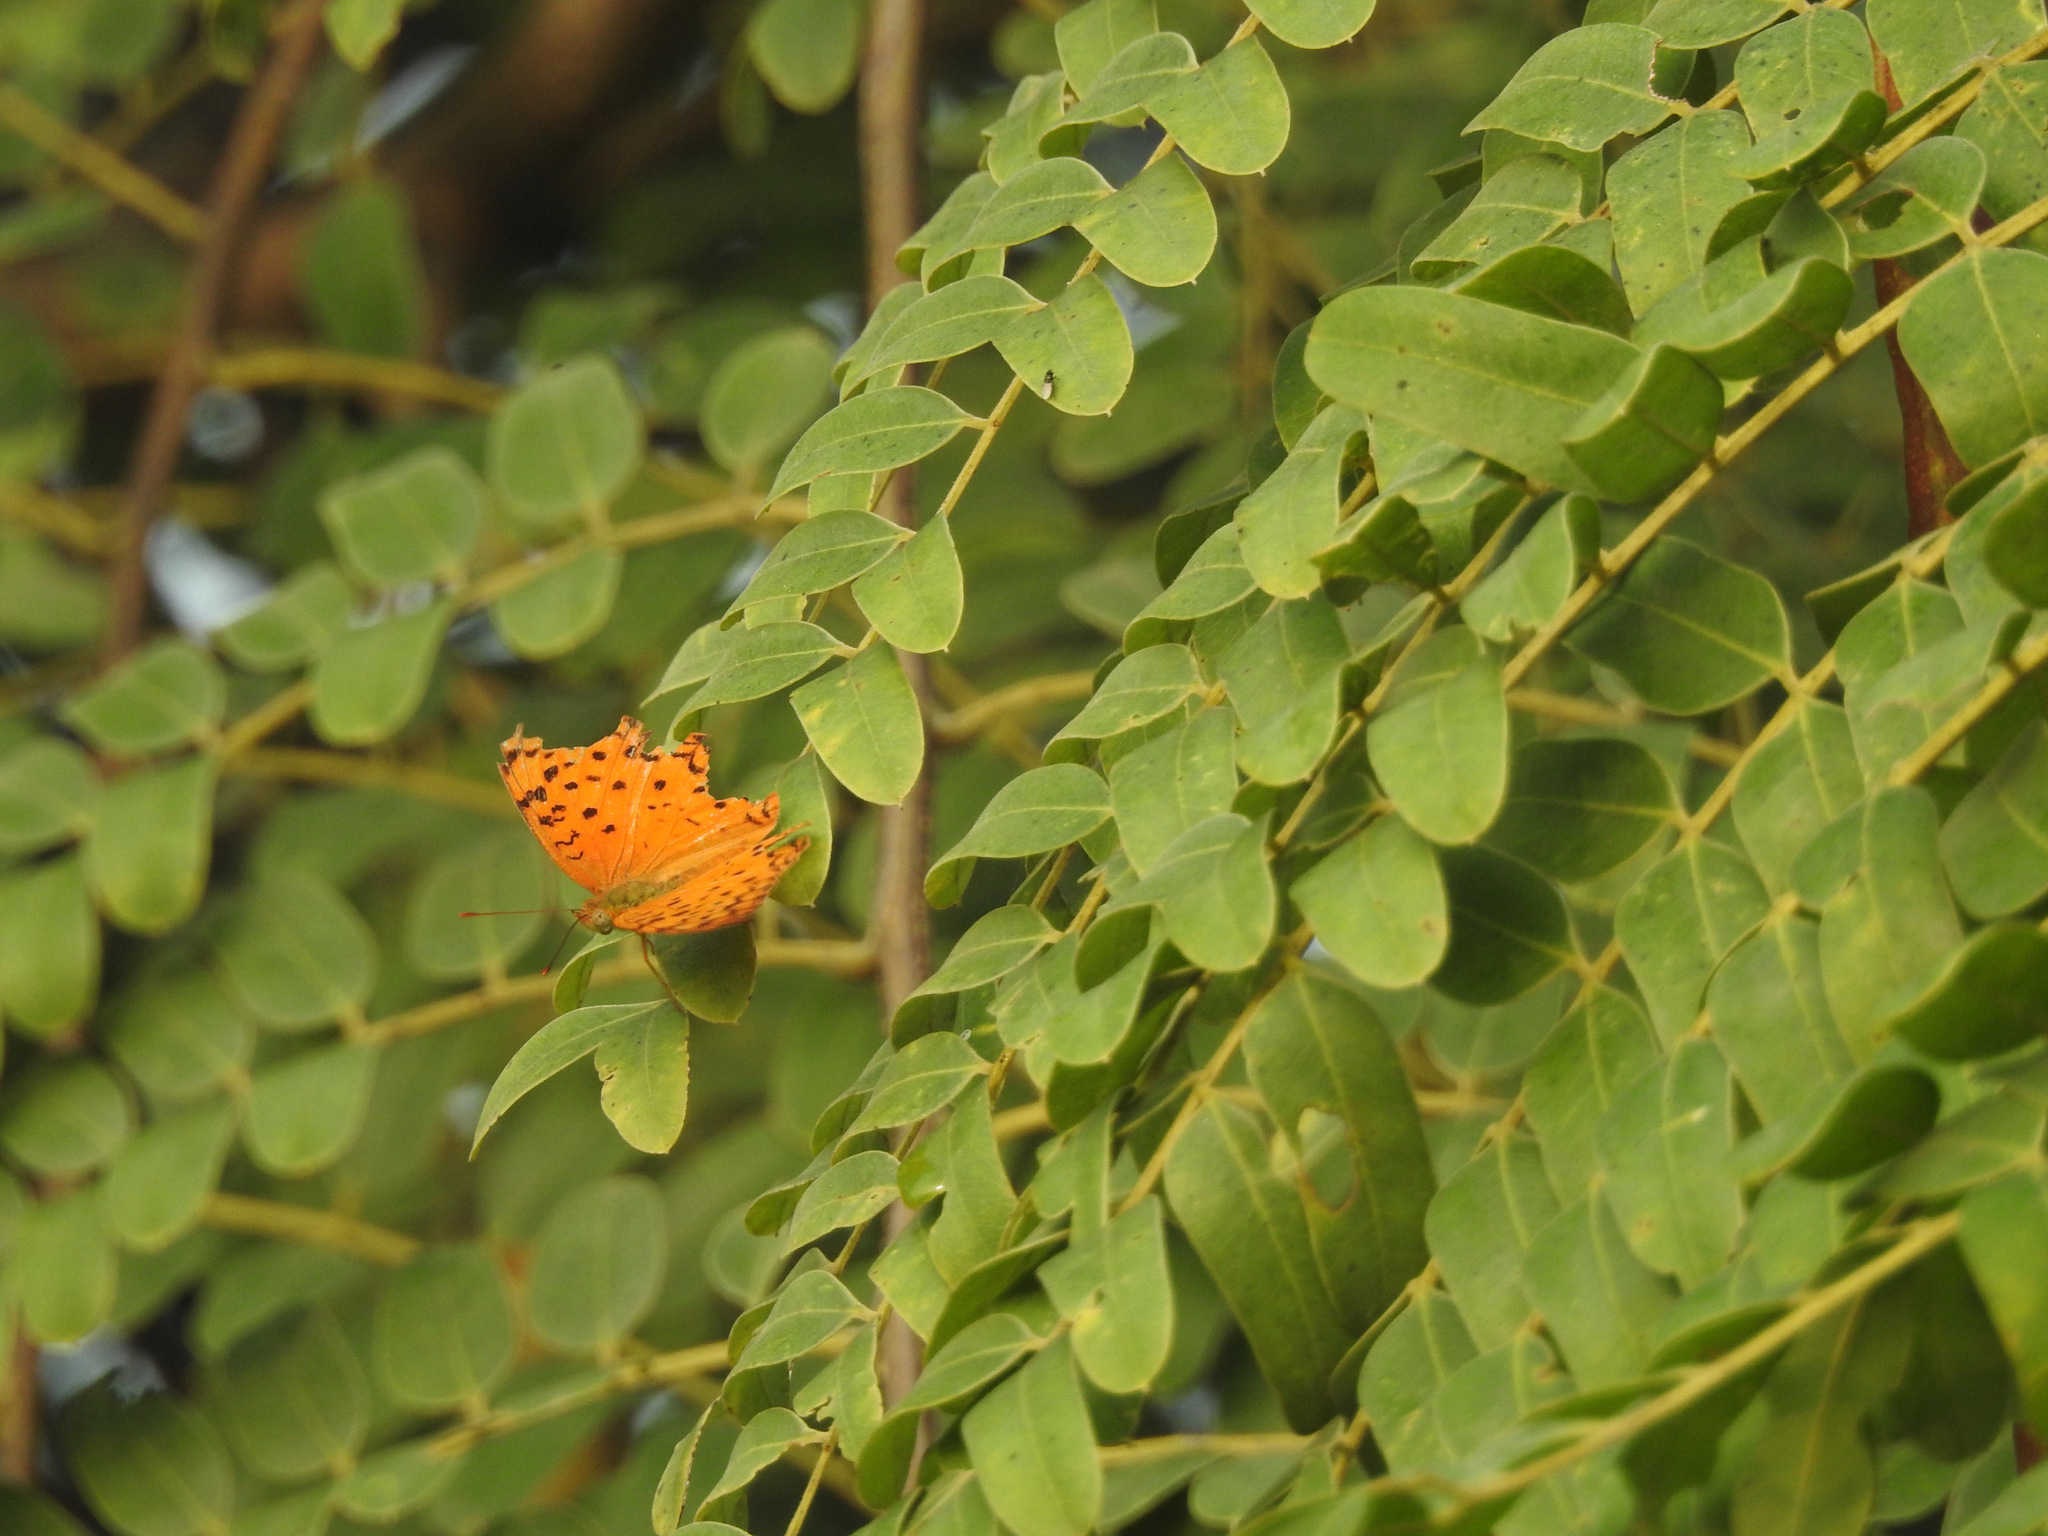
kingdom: Animalia
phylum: Arthropoda
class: Insecta
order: Lepidoptera
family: Nymphalidae
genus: Phalanta
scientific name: Phalanta phalantha
